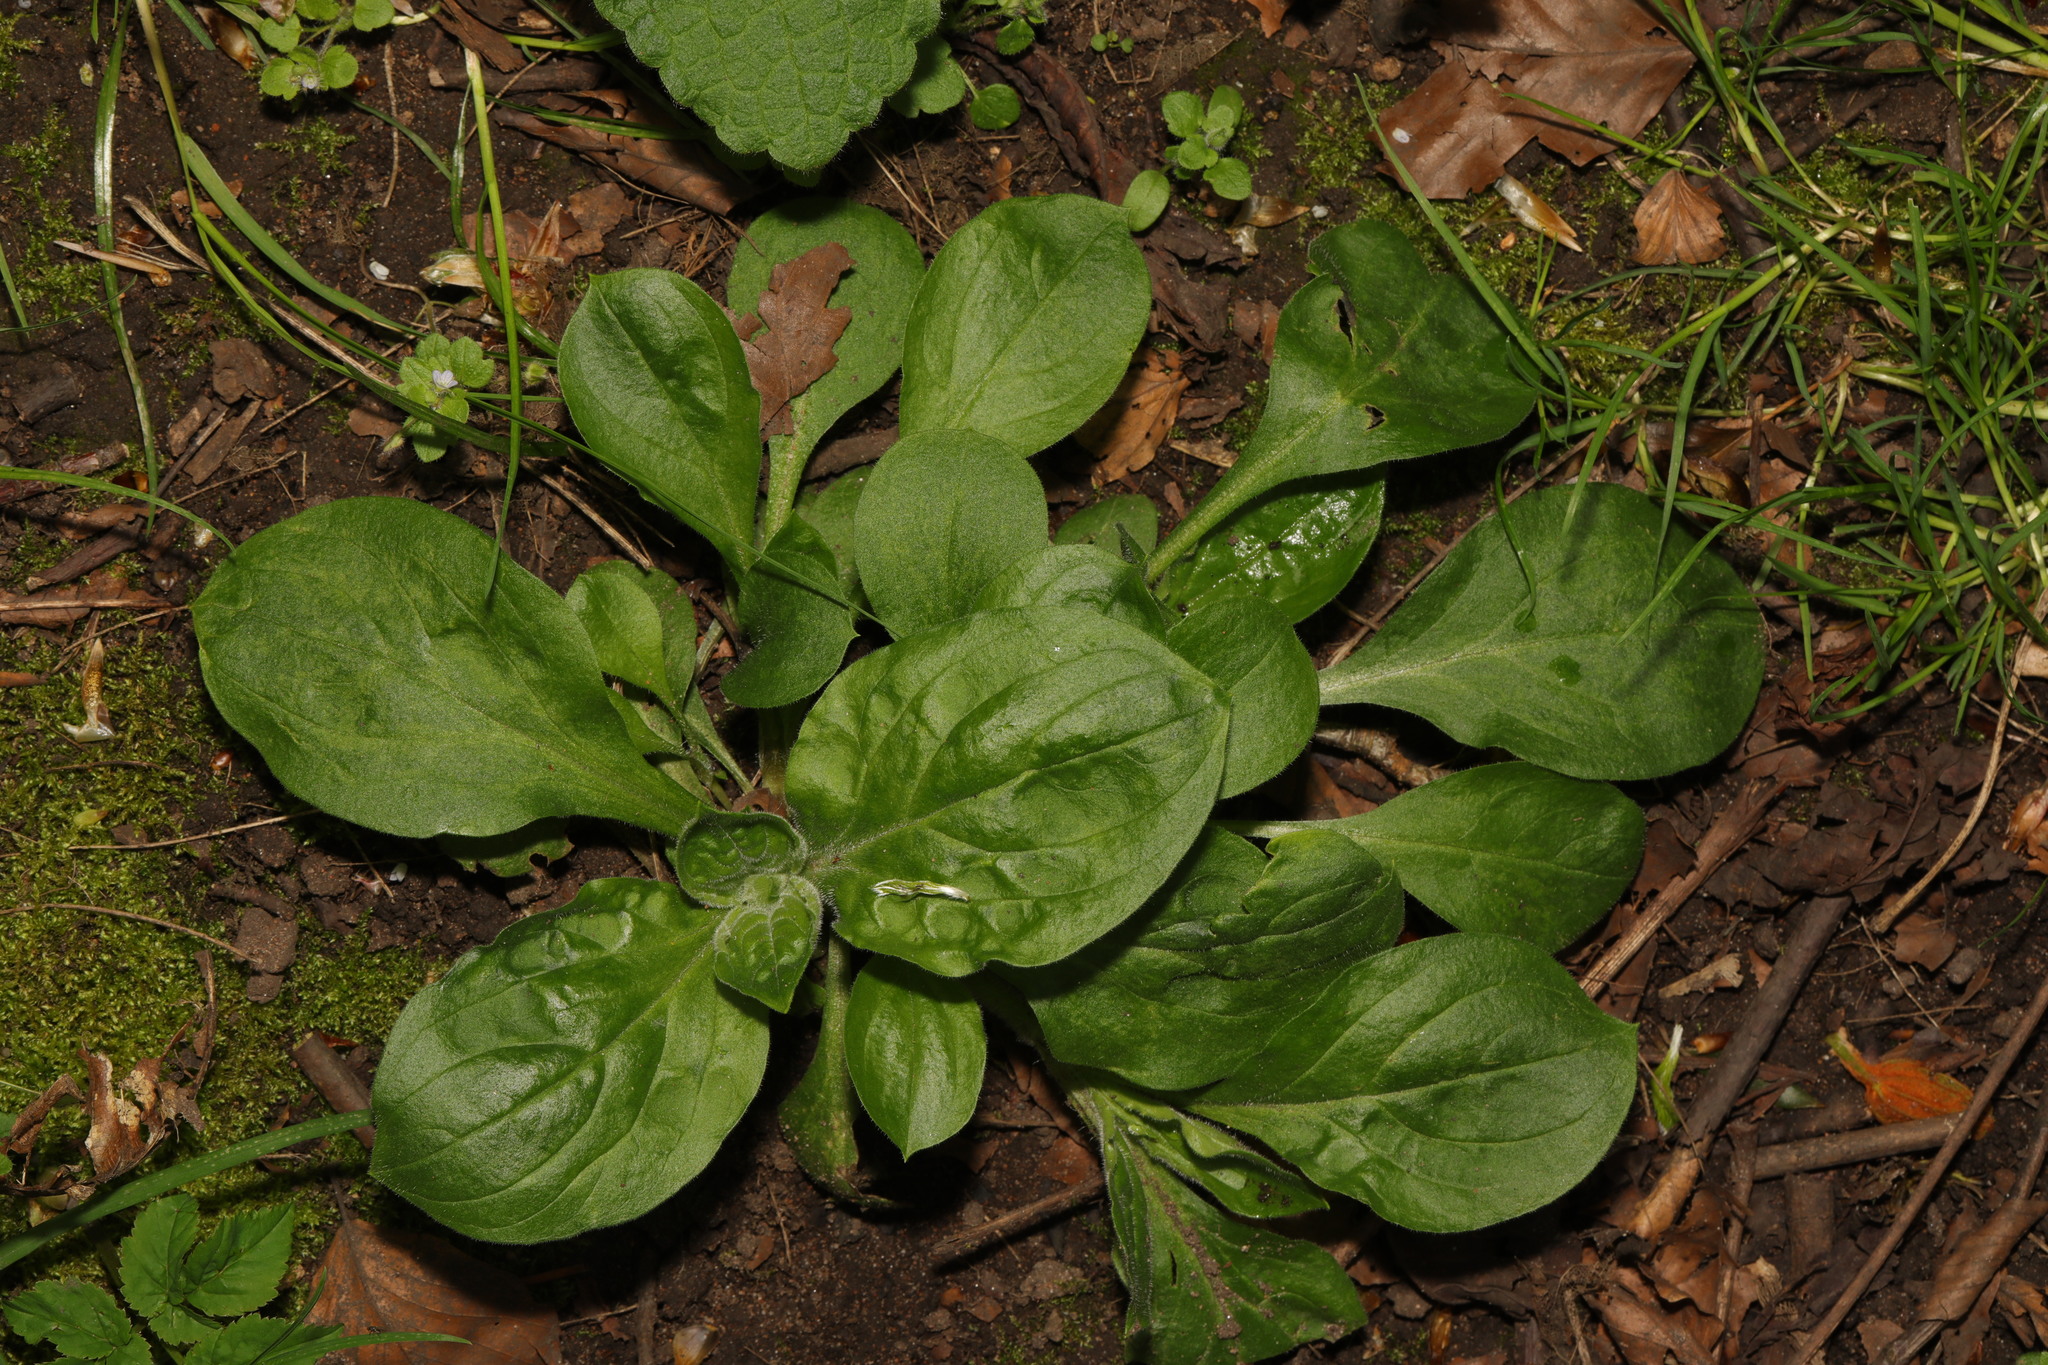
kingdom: Plantae
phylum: Tracheophyta
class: Magnoliopsida
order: Caryophyllales
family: Caryophyllaceae
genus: Silene
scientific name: Silene dioica
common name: Red campion
